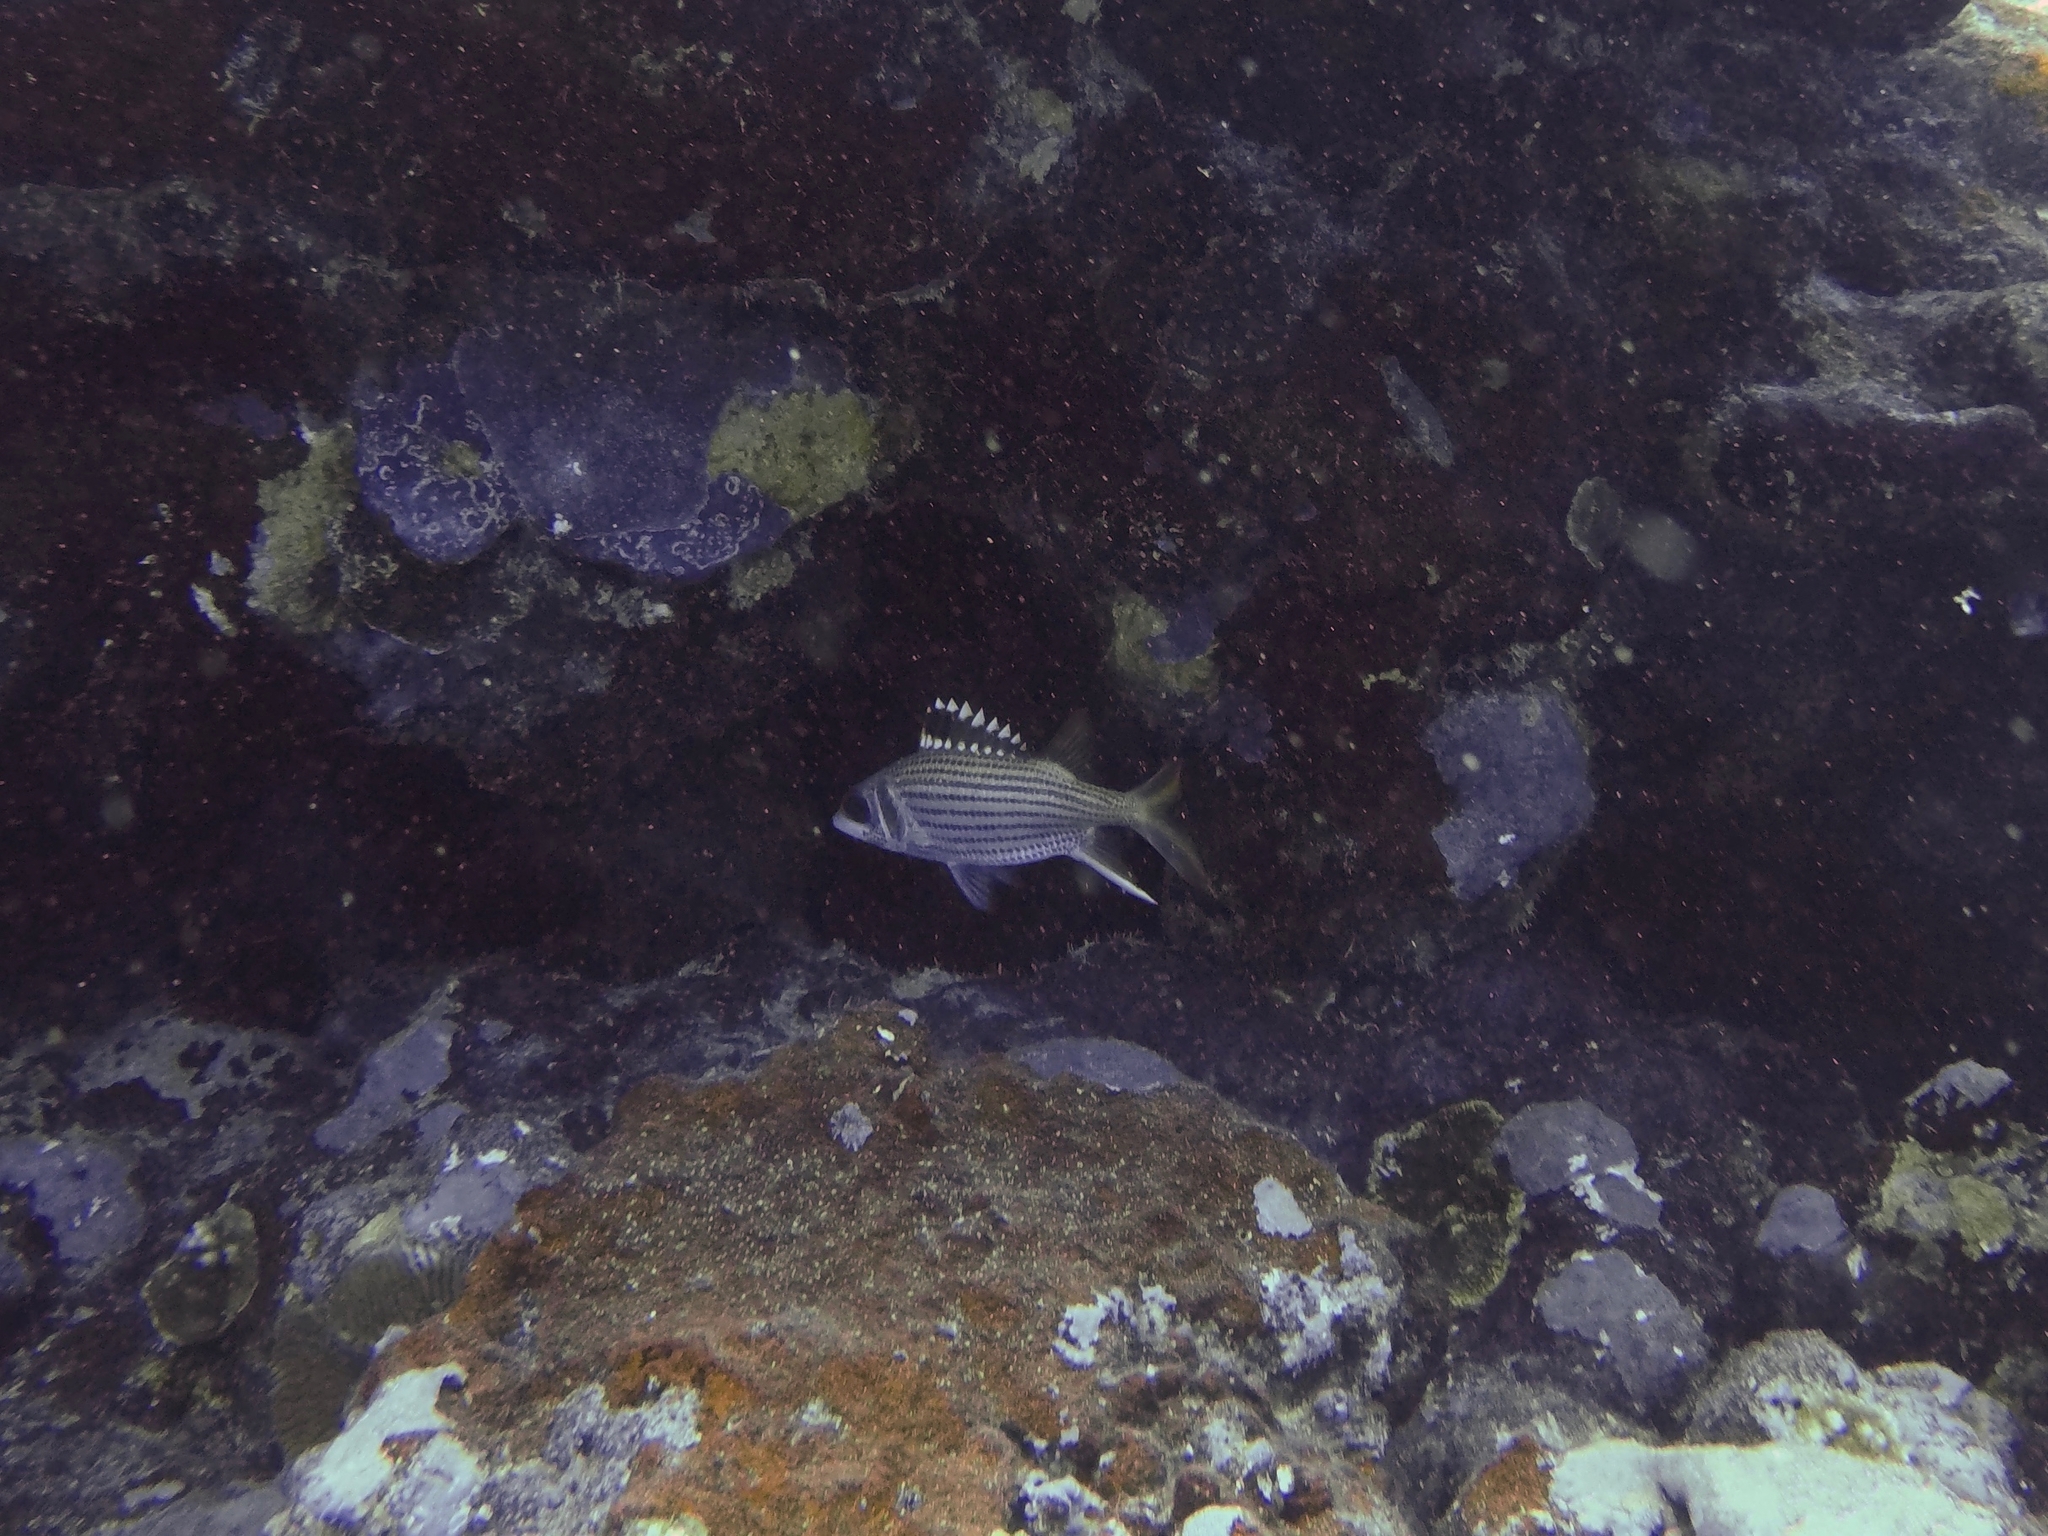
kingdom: Animalia
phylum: Chordata
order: Beryciformes
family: Holocentridae
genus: Neoniphon
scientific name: Neoniphon sammara
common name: Sammara squirrelfish
